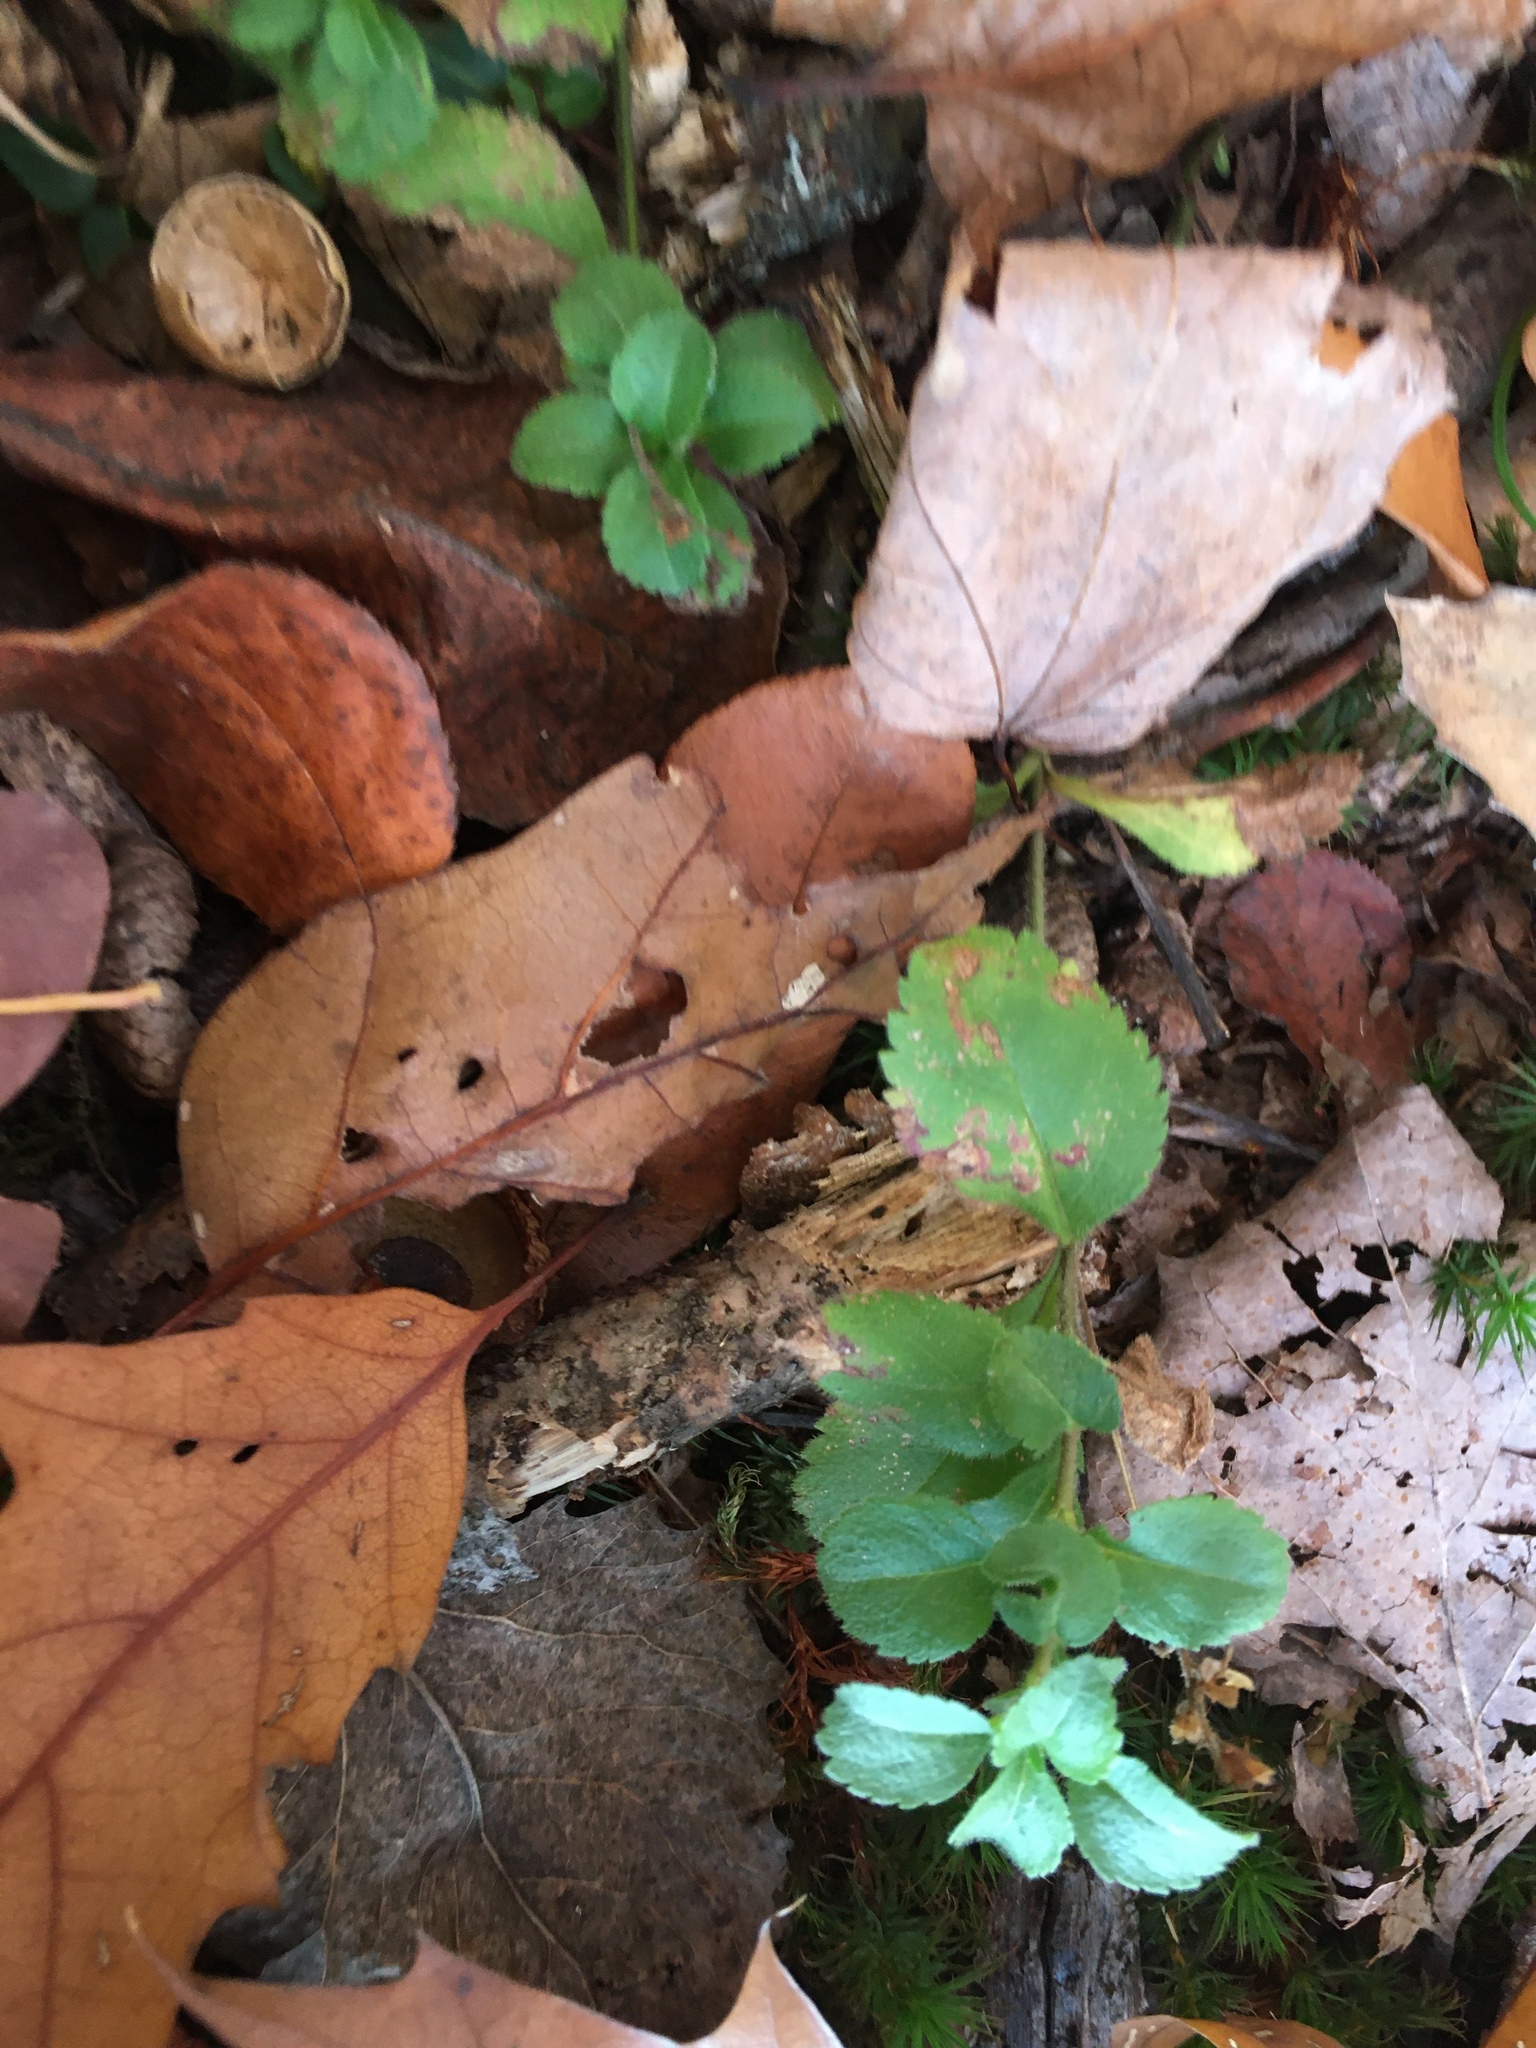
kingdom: Plantae
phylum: Tracheophyta
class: Magnoliopsida
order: Lamiales
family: Plantaginaceae
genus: Veronica
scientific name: Veronica officinalis
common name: Common speedwell
